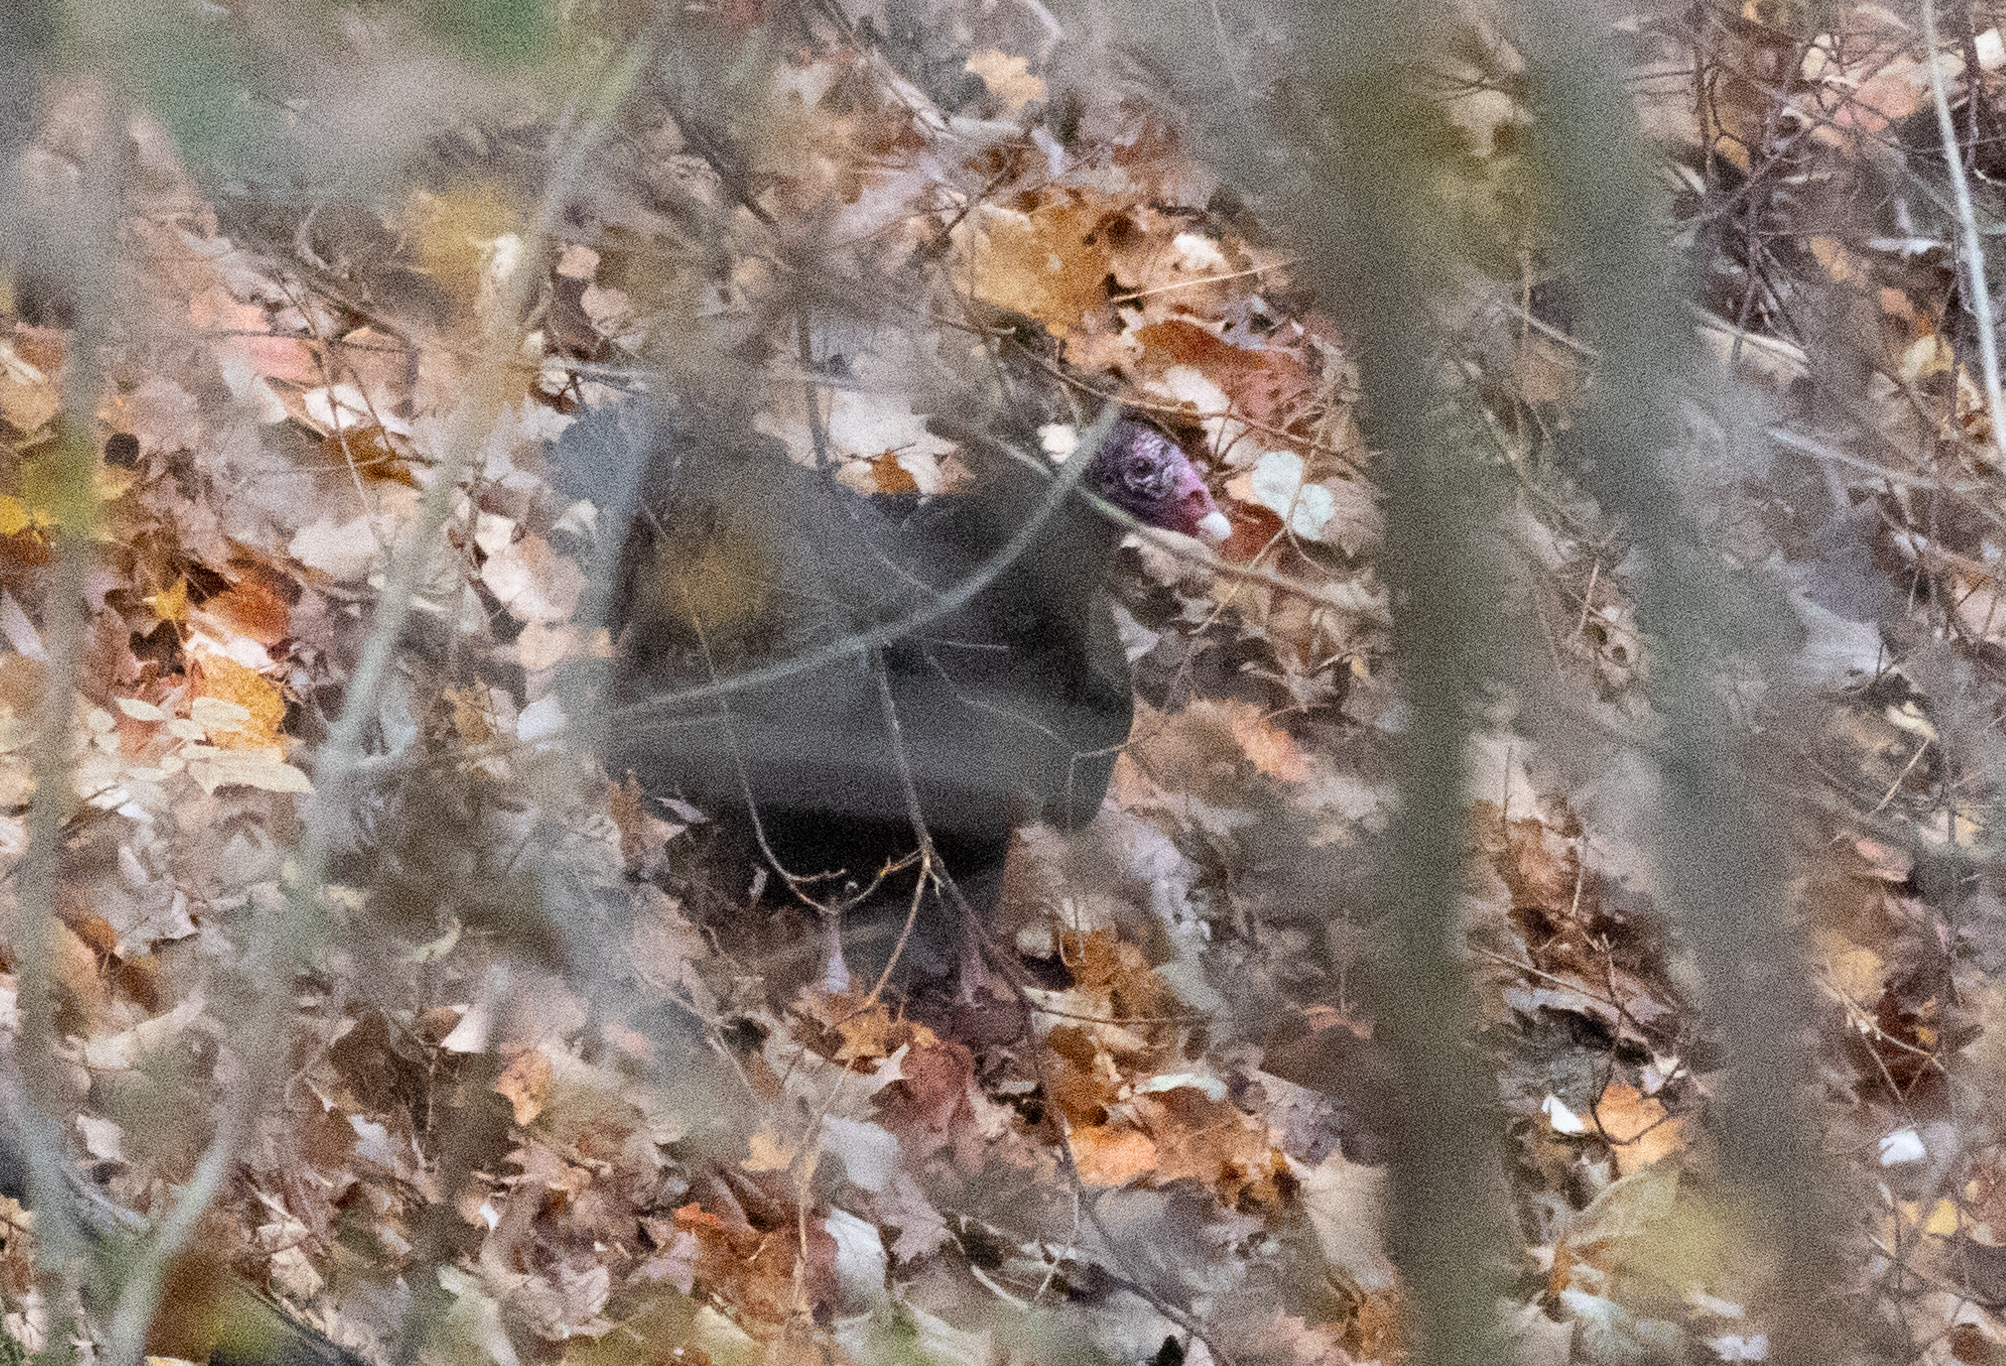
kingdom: Animalia
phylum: Chordata
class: Aves
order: Accipitriformes
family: Cathartidae
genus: Cathartes
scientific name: Cathartes aura
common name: Turkey vulture
